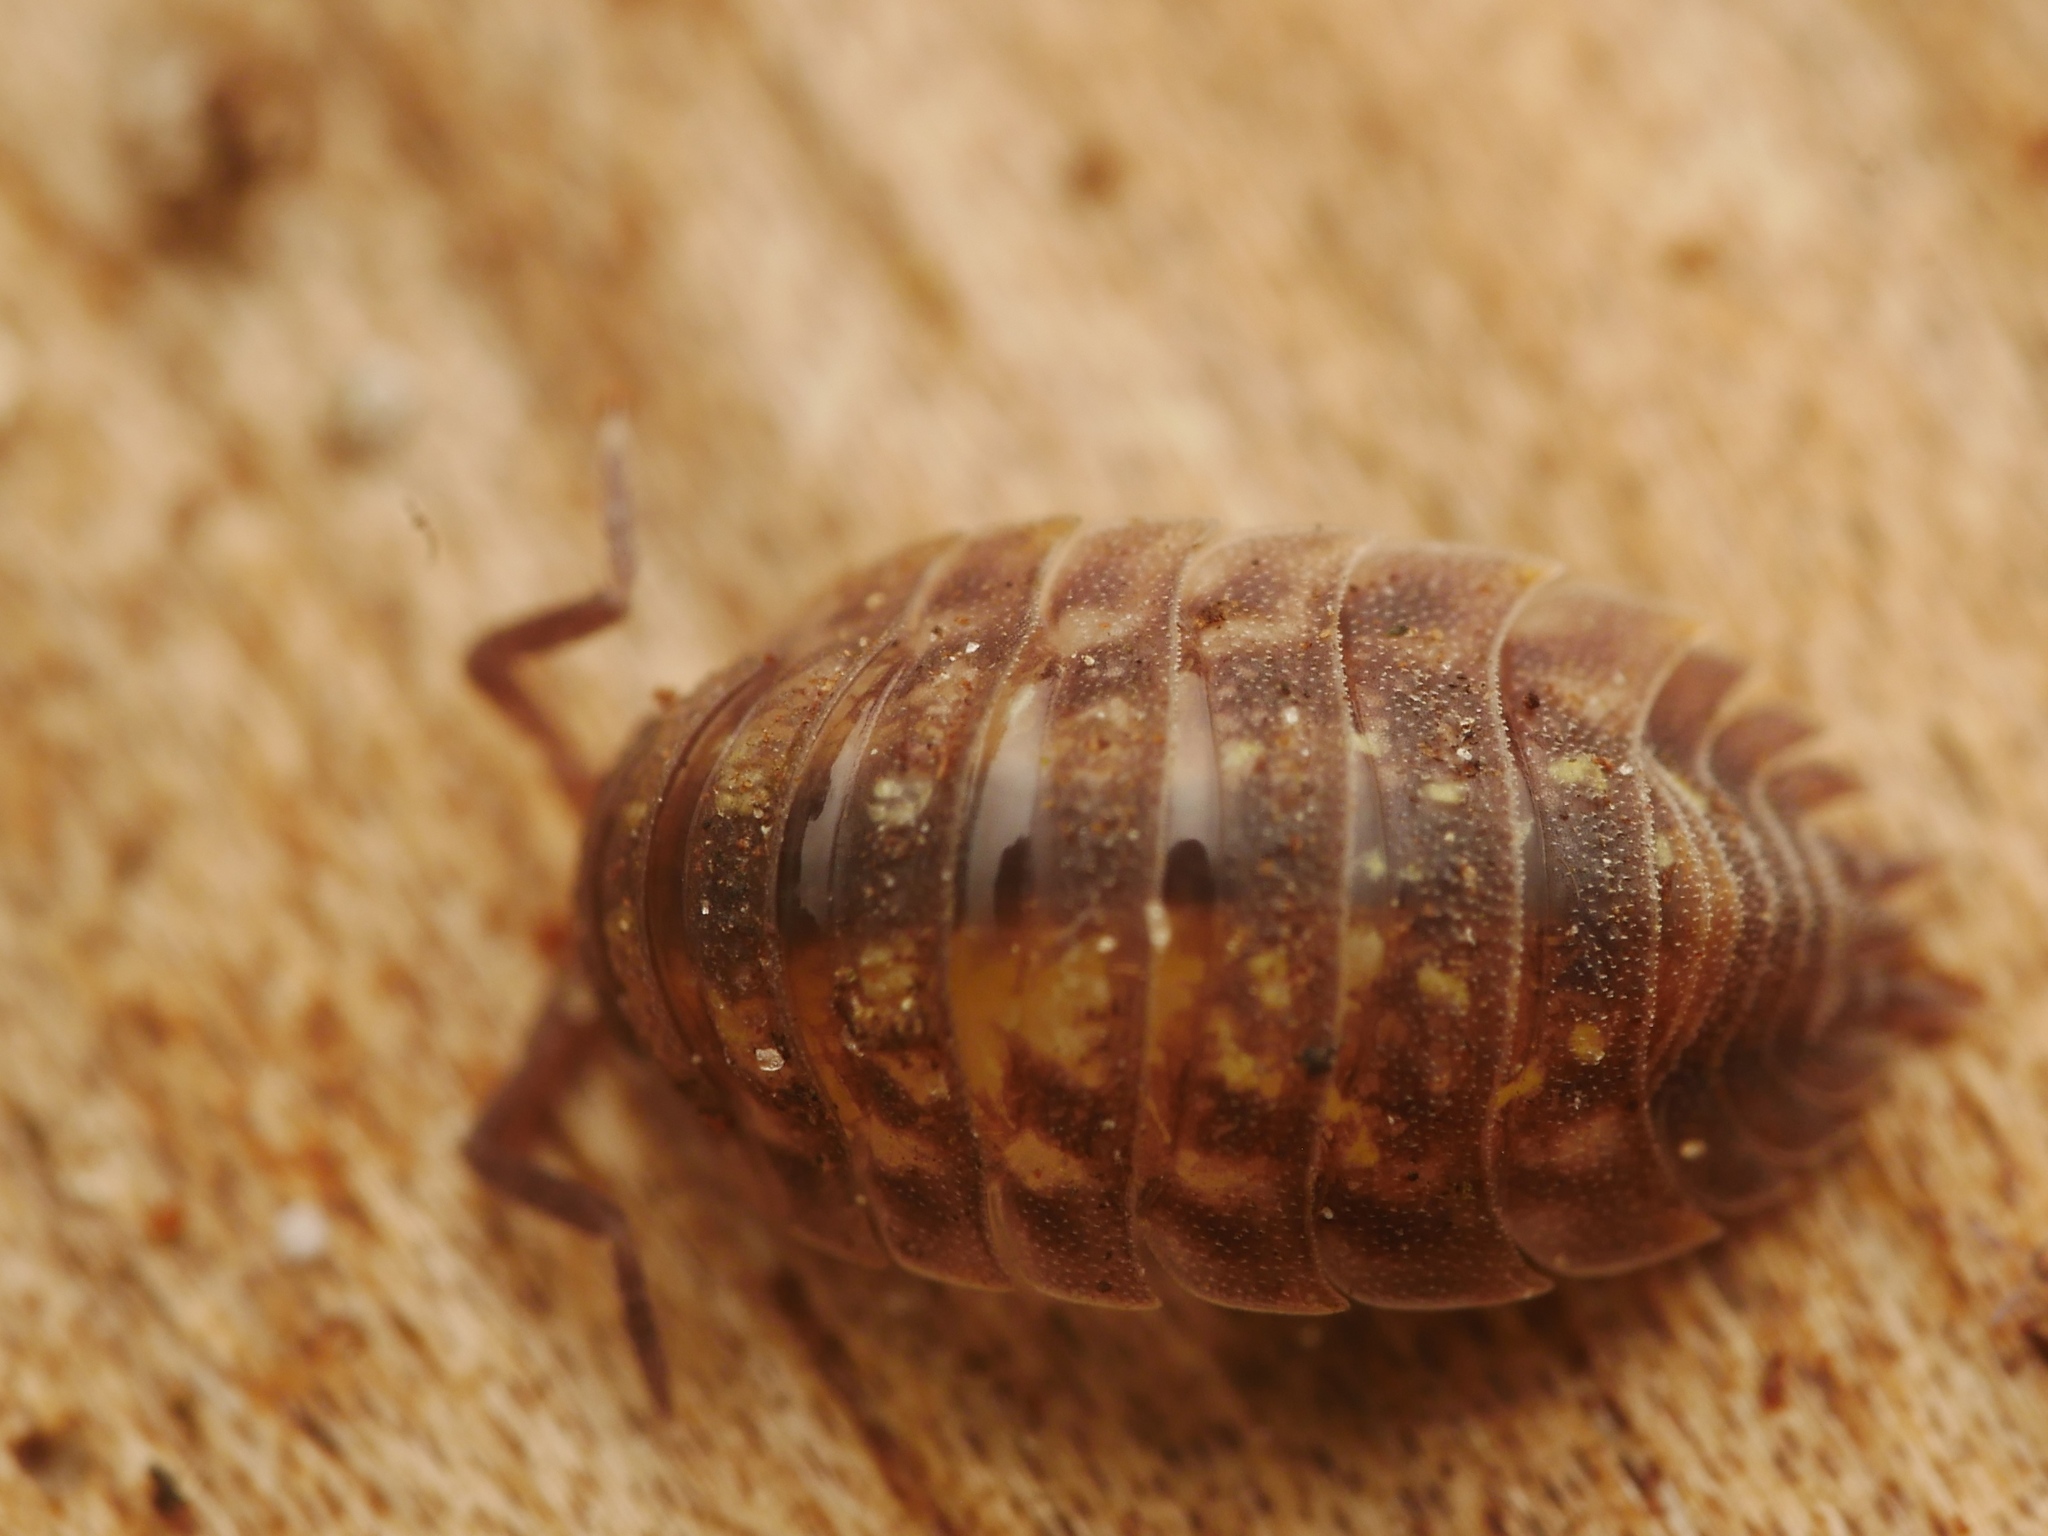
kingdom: Animalia
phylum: Arthropoda
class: Malacostraca
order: Isopoda
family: Oniscidae
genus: Oniscus
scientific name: Oniscus asellus
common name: Common shiny woodlouse
